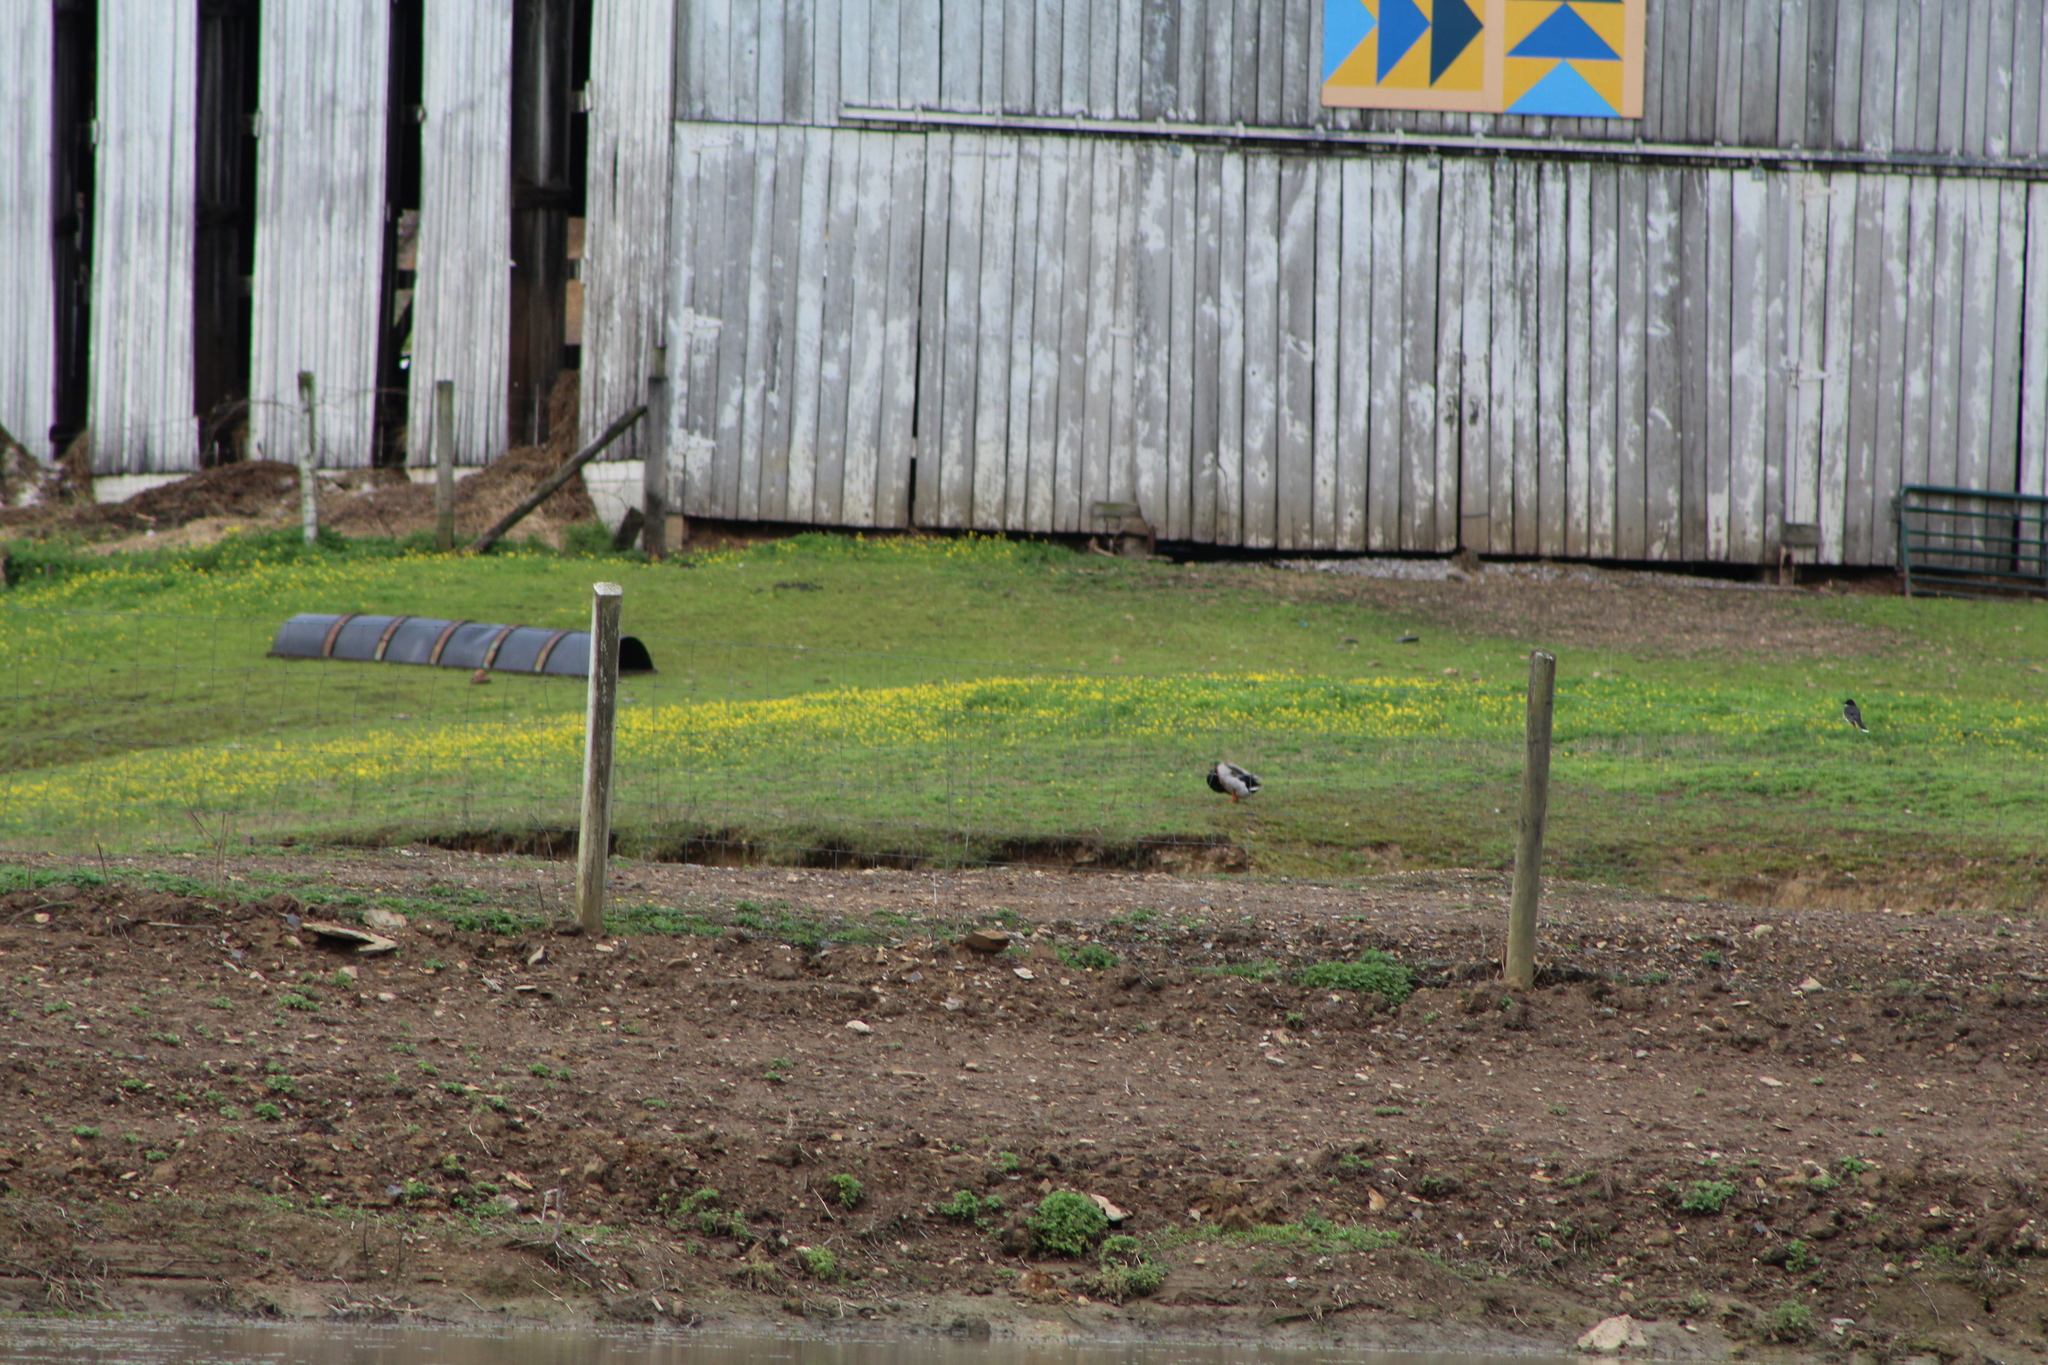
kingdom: Animalia
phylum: Chordata
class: Aves
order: Anseriformes
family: Anatidae
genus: Anas
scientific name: Anas platyrhynchos
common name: Mallard
